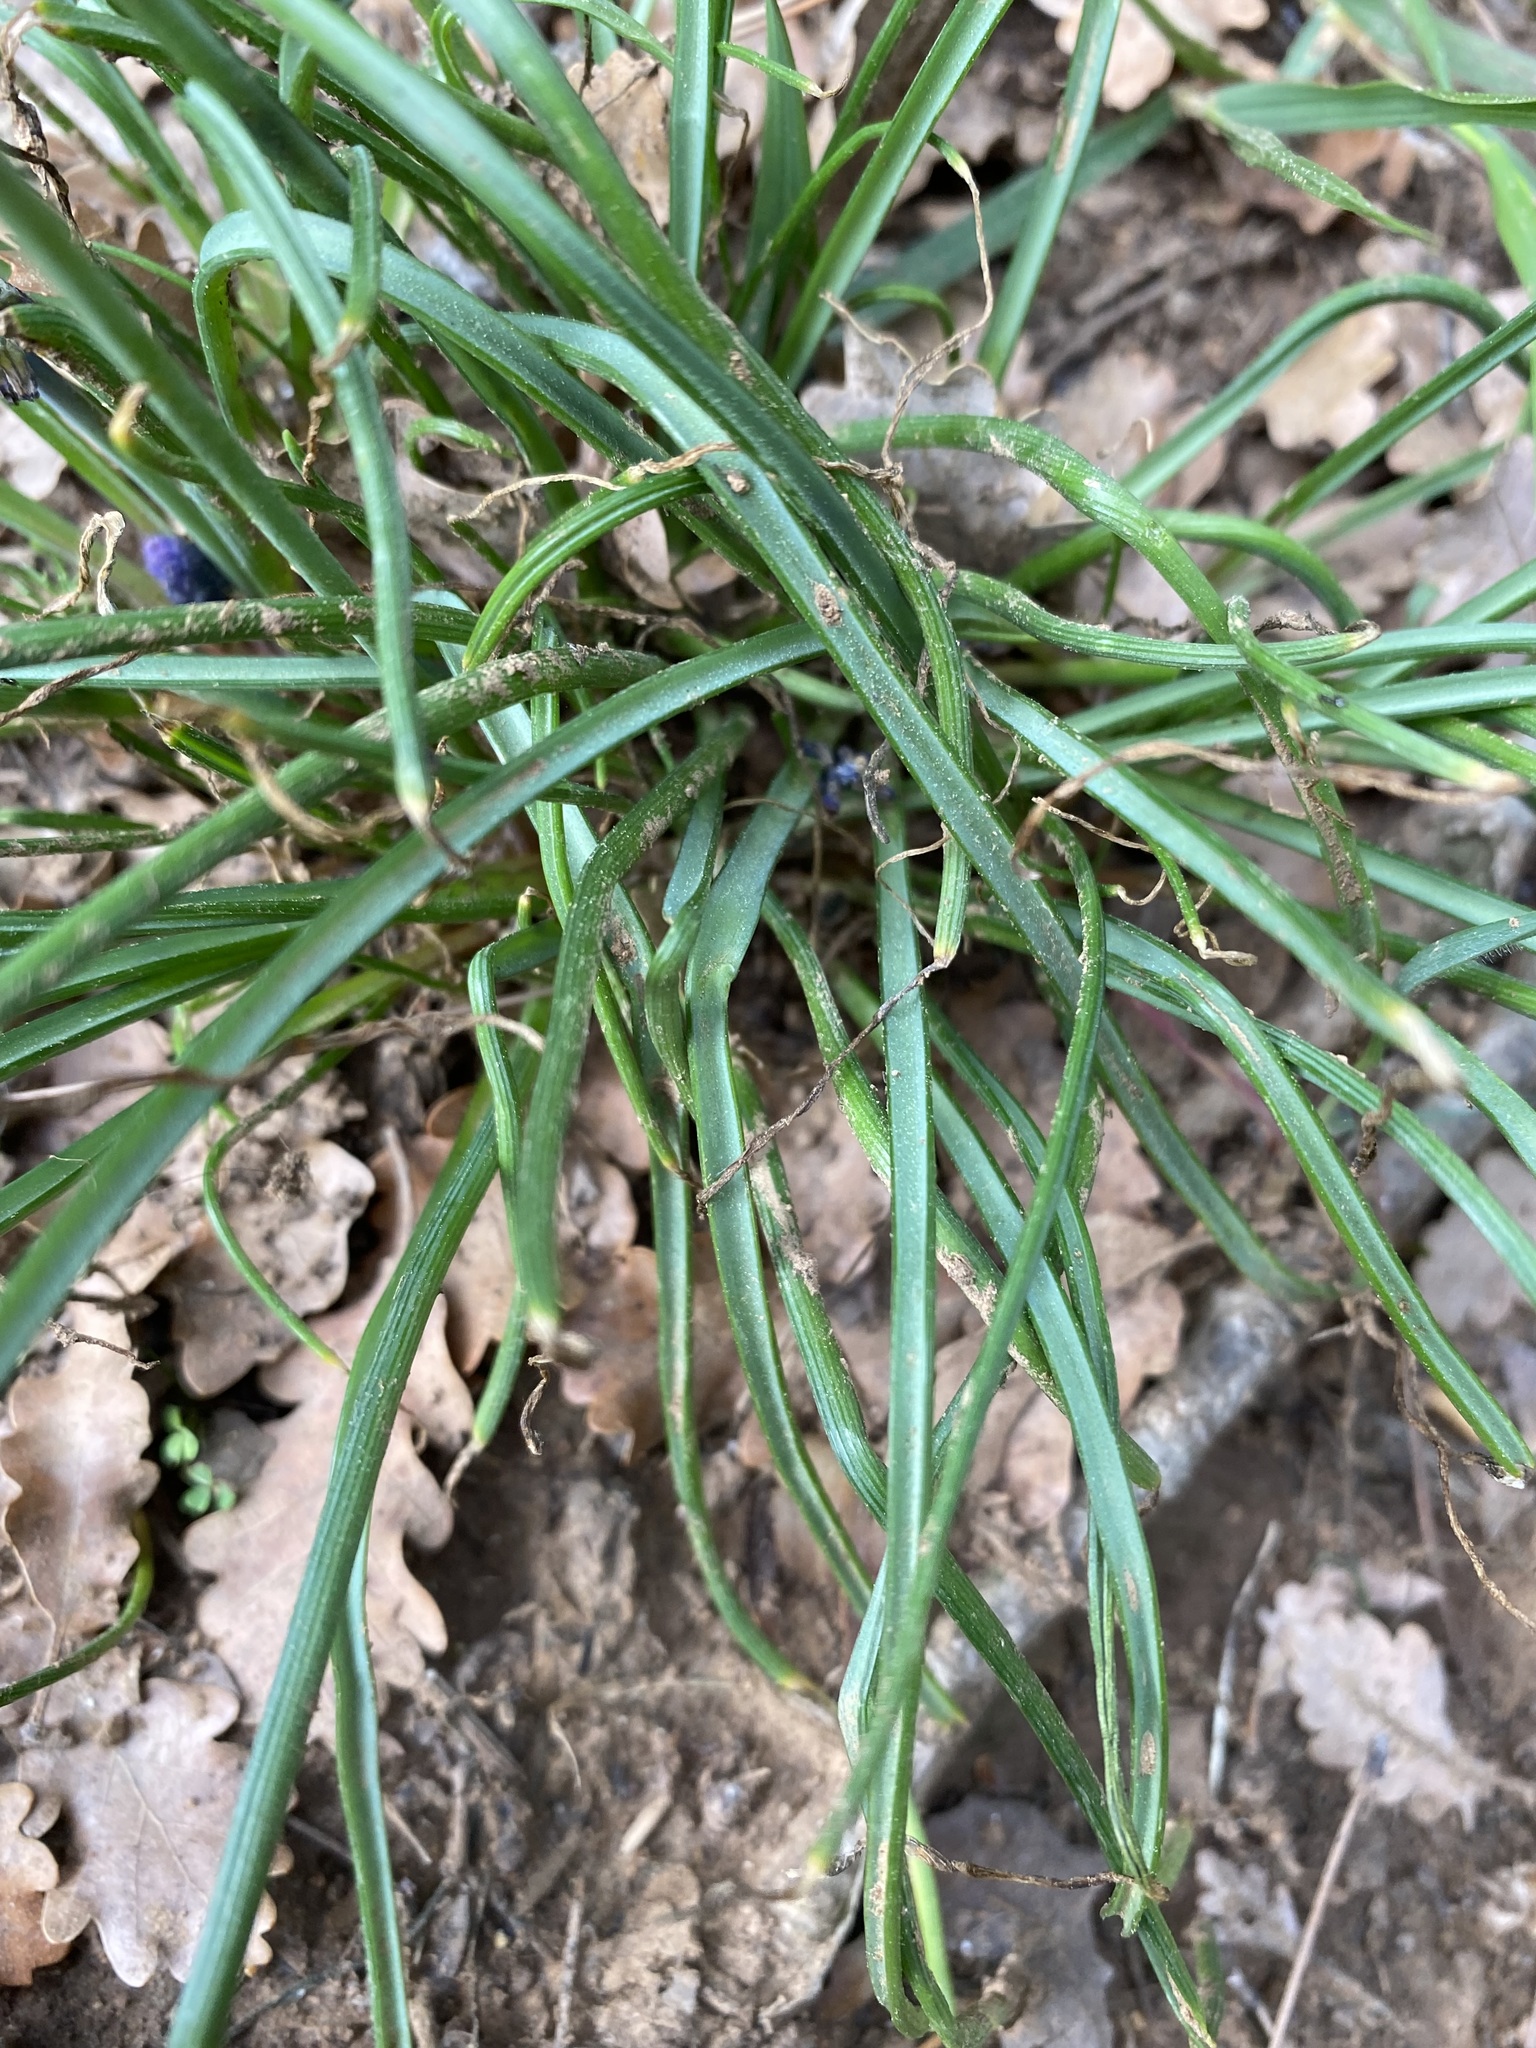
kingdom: Plantae
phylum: Tracheophyta
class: Liliopsida
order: Asparagales
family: Asparagaceae
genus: Muscari
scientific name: Muscari neglectum
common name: Grape-hyacinth
